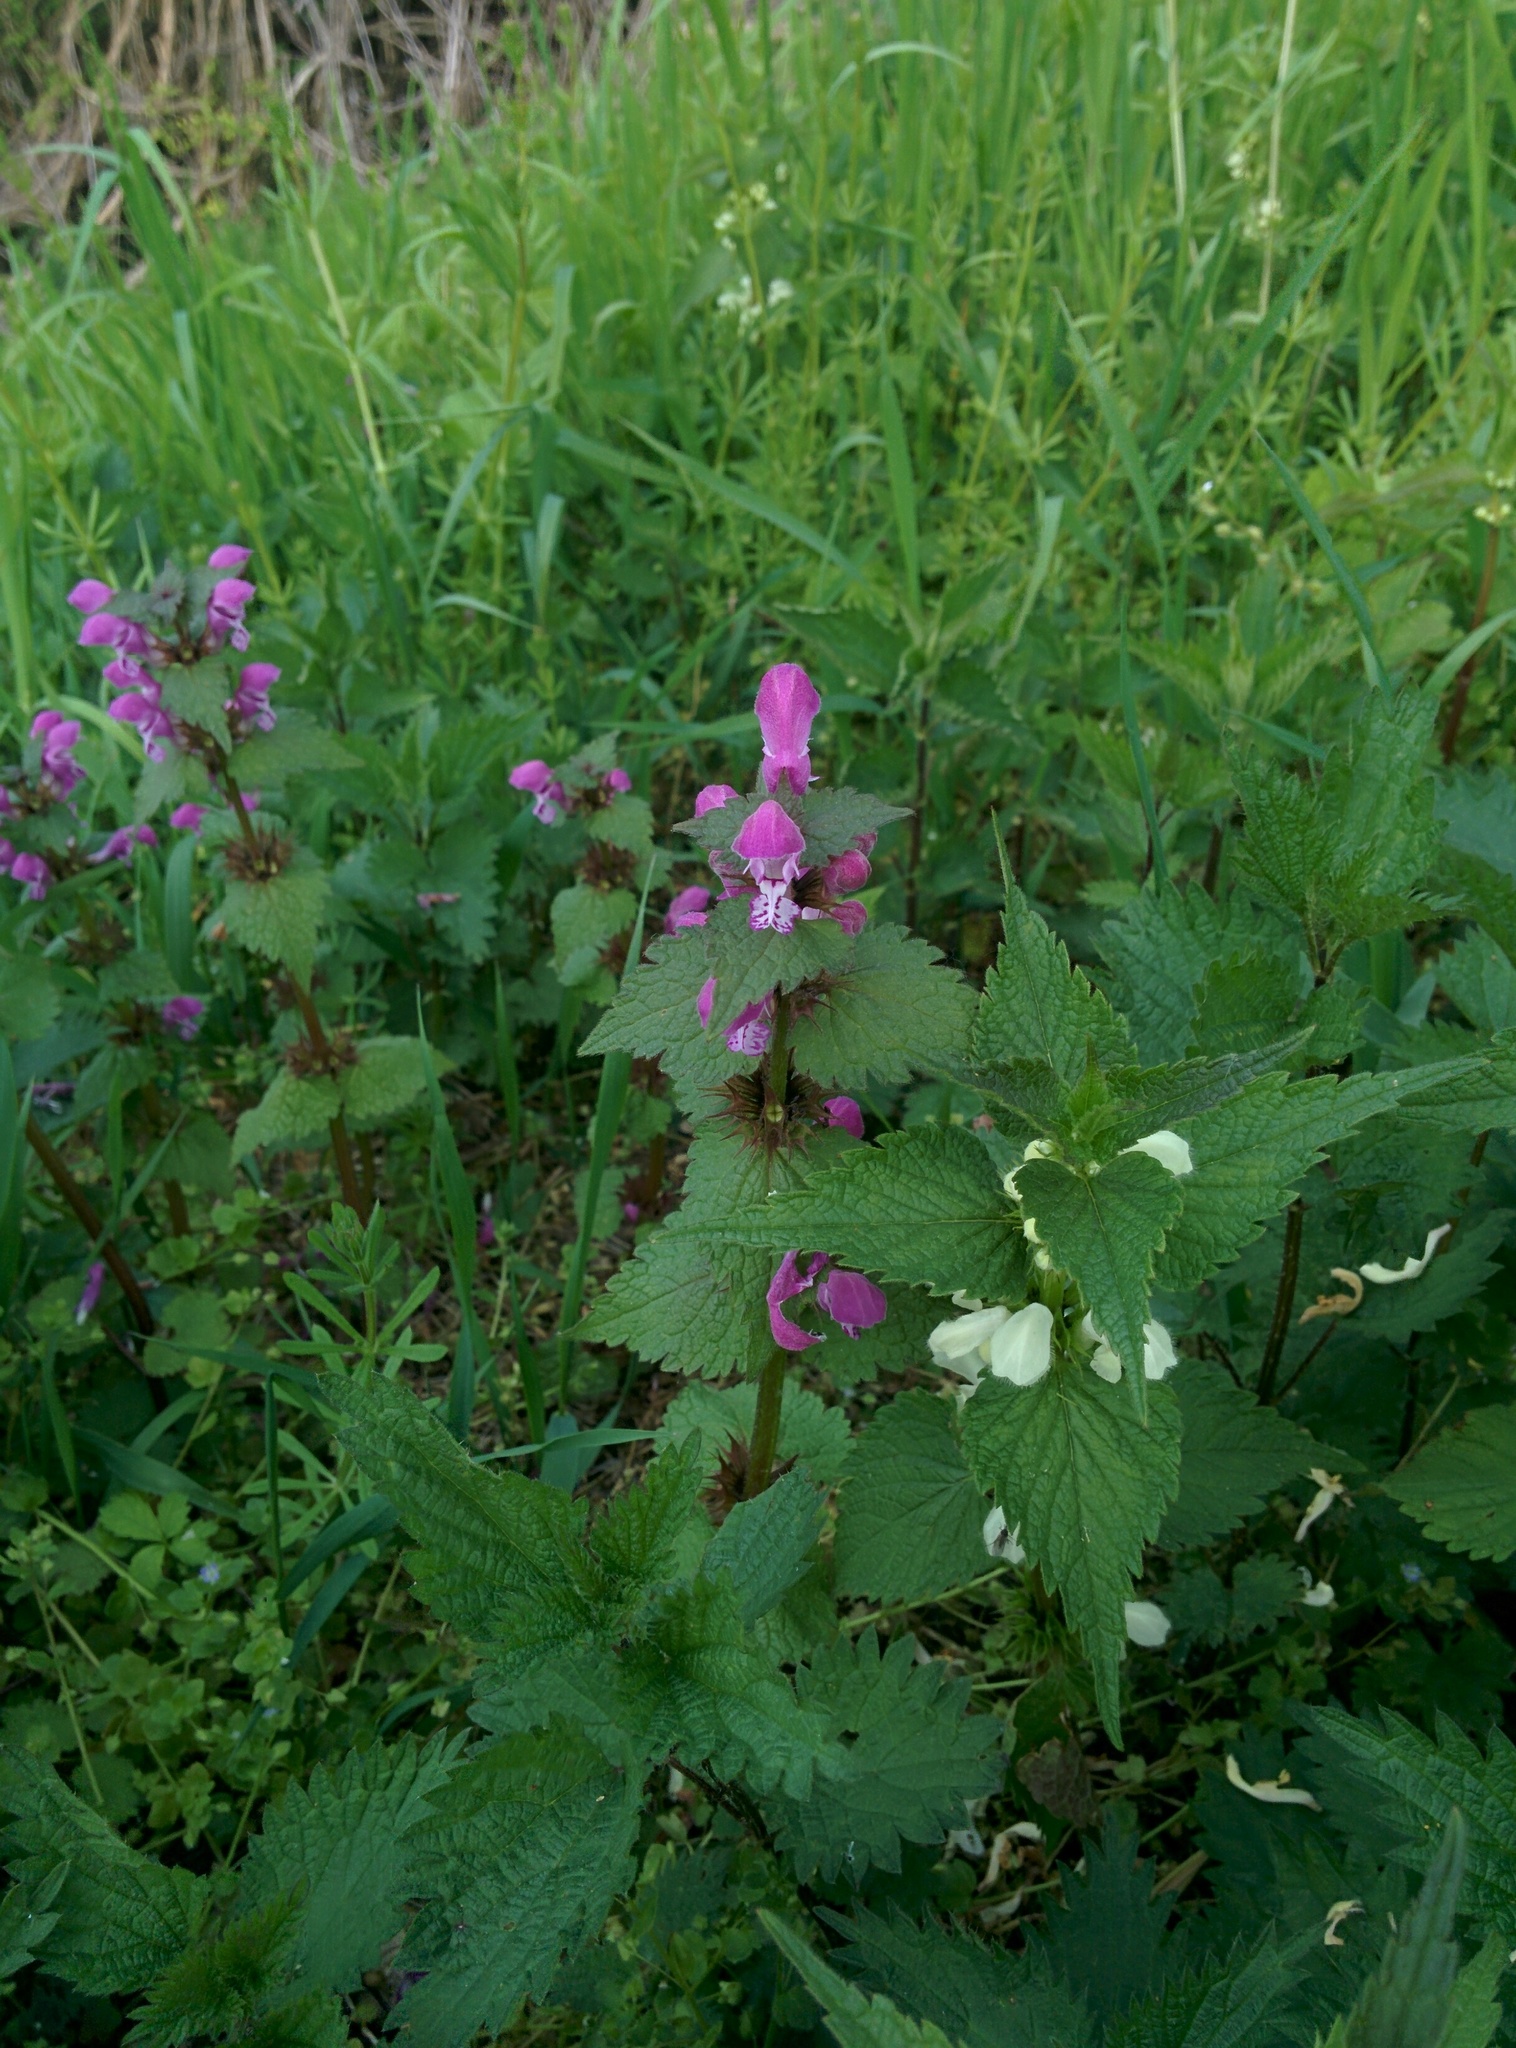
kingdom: Plantae
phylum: Tracheophyta
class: Magnoliopsida
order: Lamiales
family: Lamiaceae
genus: Lamium
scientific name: Lamium maculatum
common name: Spotted dead-nettle
